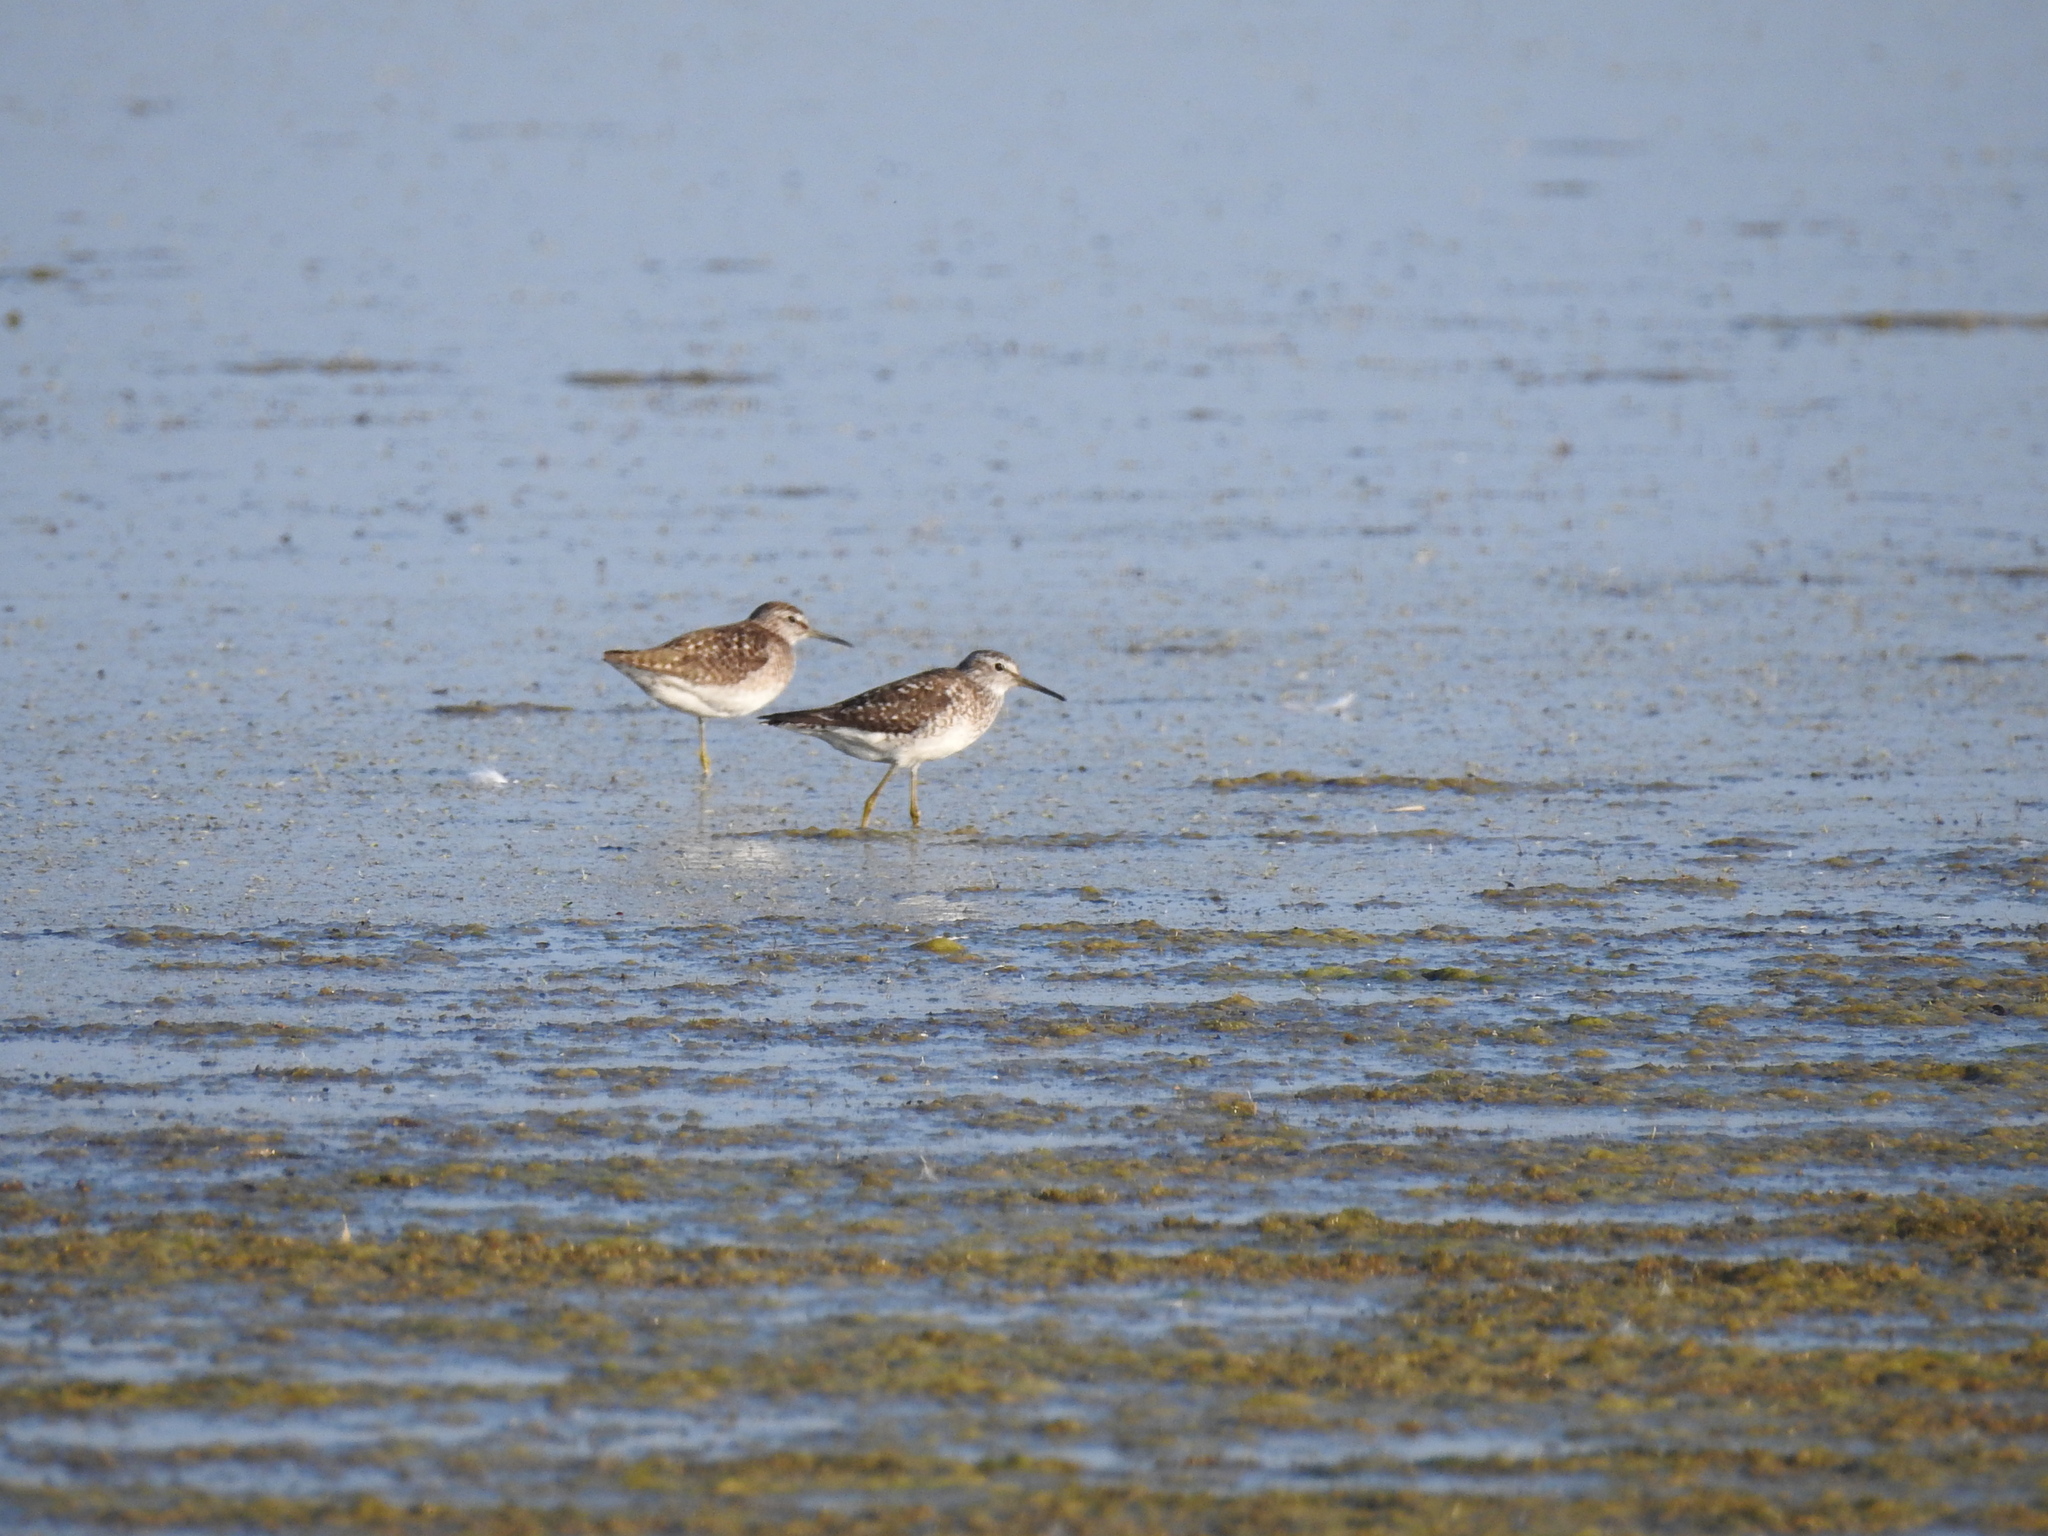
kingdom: Animalia
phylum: Chordata
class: Aves
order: Charadriiformes
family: Scolopacidae
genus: Tringa
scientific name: Tringa glareola
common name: Wood sandpiper
